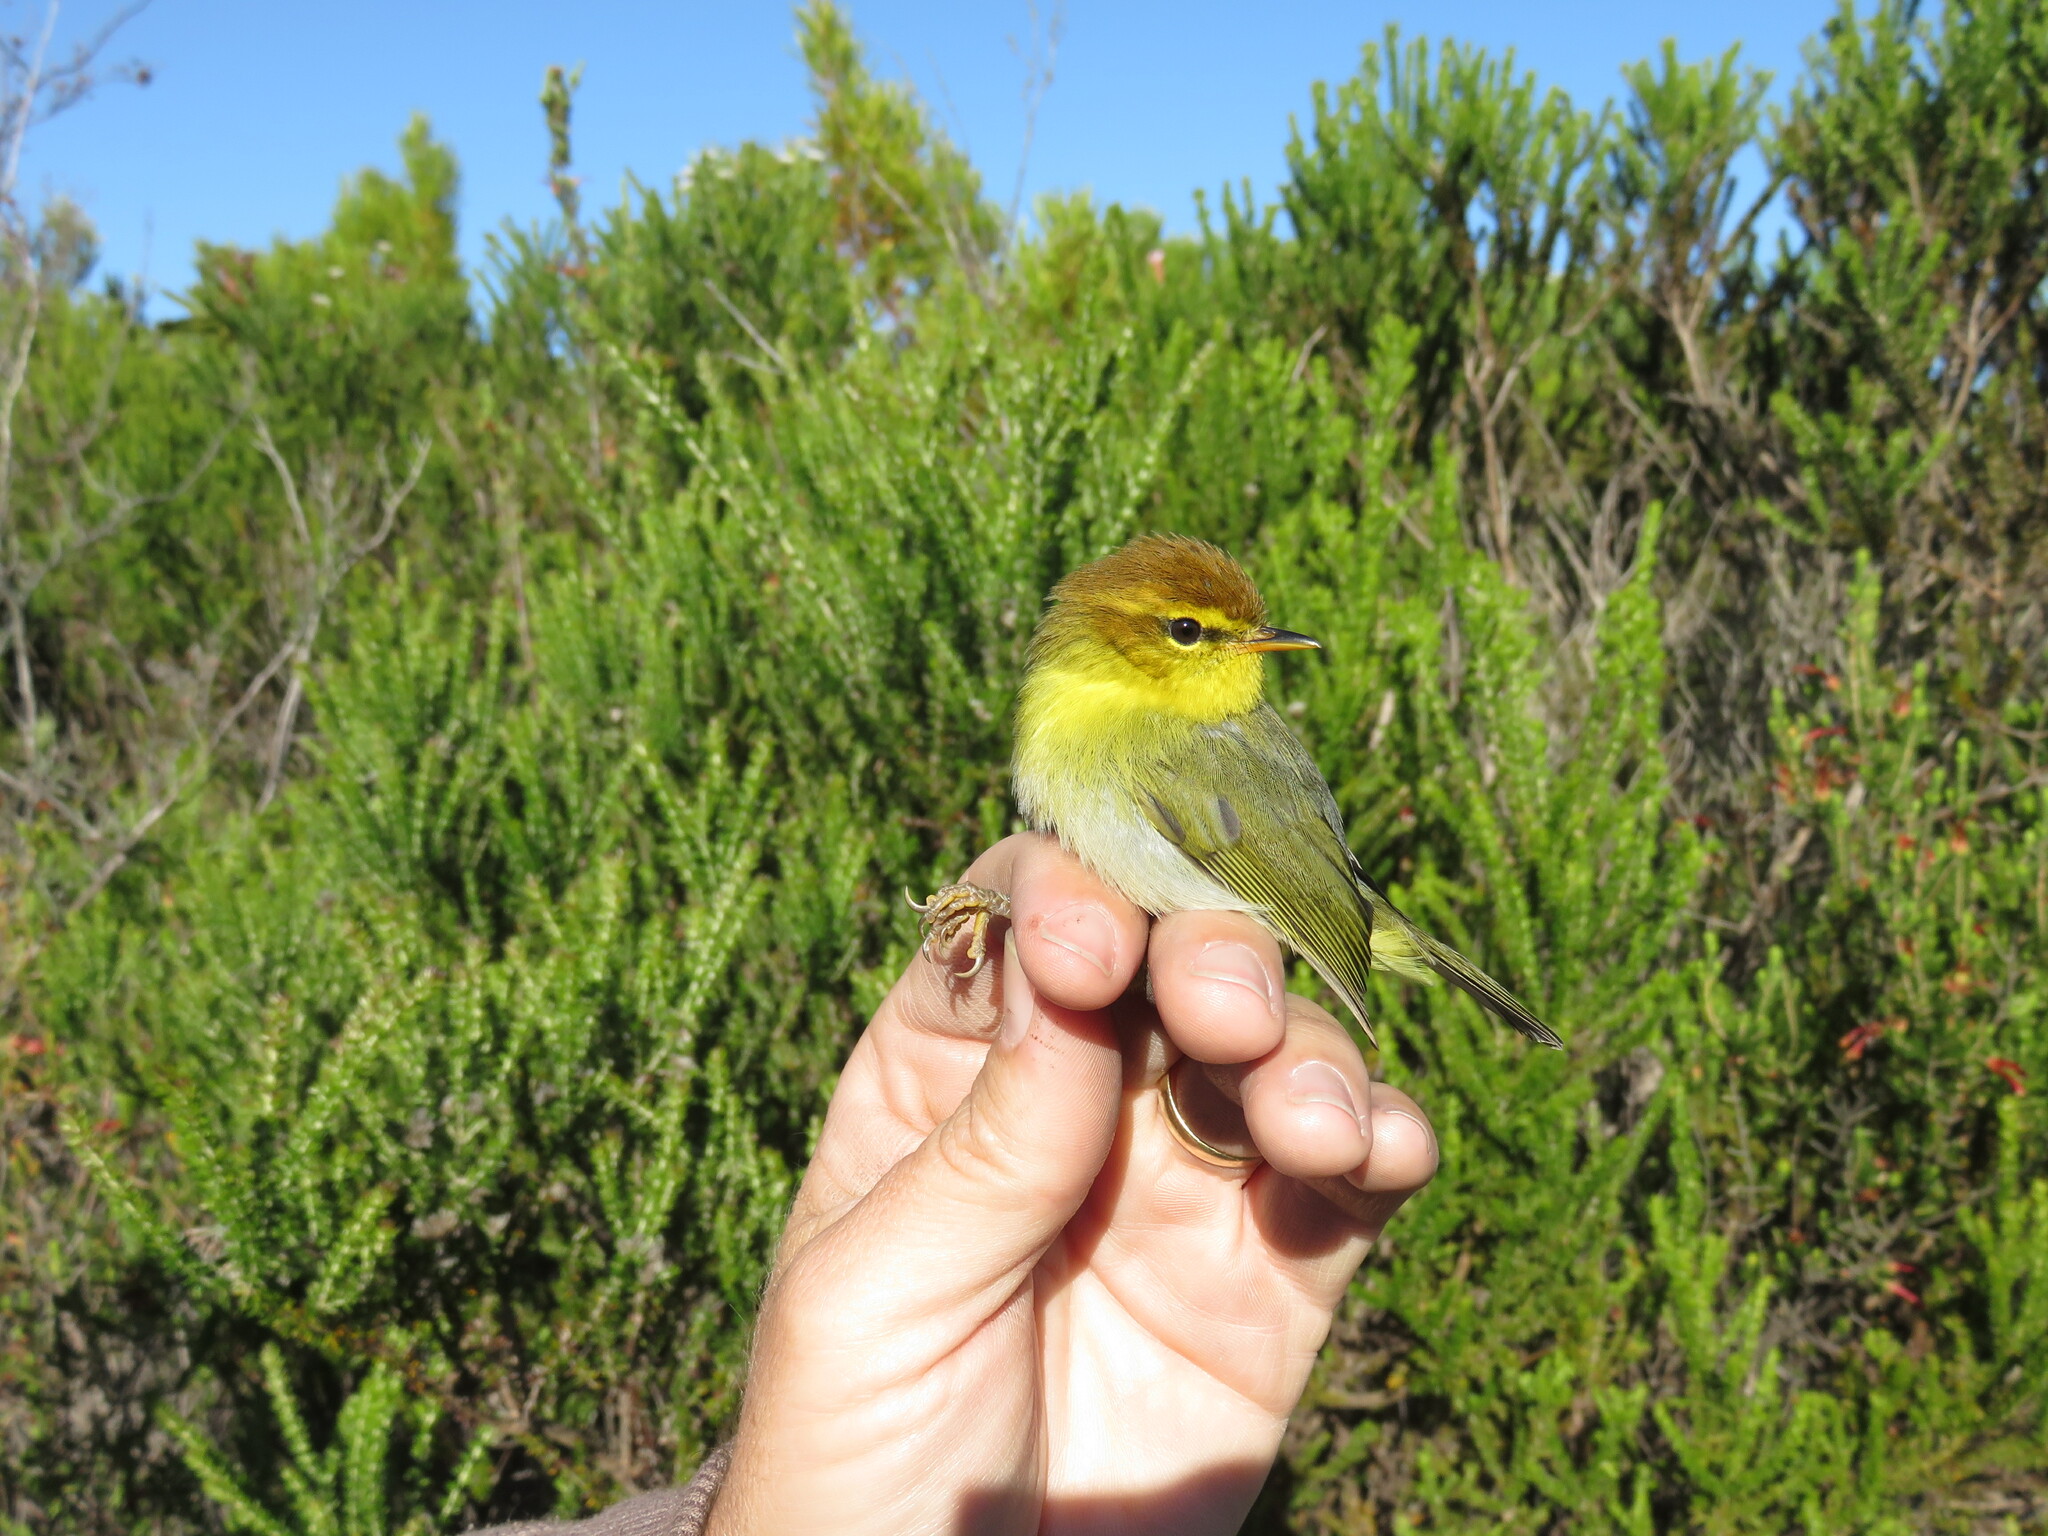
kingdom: Animalia
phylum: Chordata
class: Aves
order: Passeriformes
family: Phylloscopidae
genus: Phylloscopus
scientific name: Phylloscopus ruficapilla
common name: Yellow-throated woodland warbler
